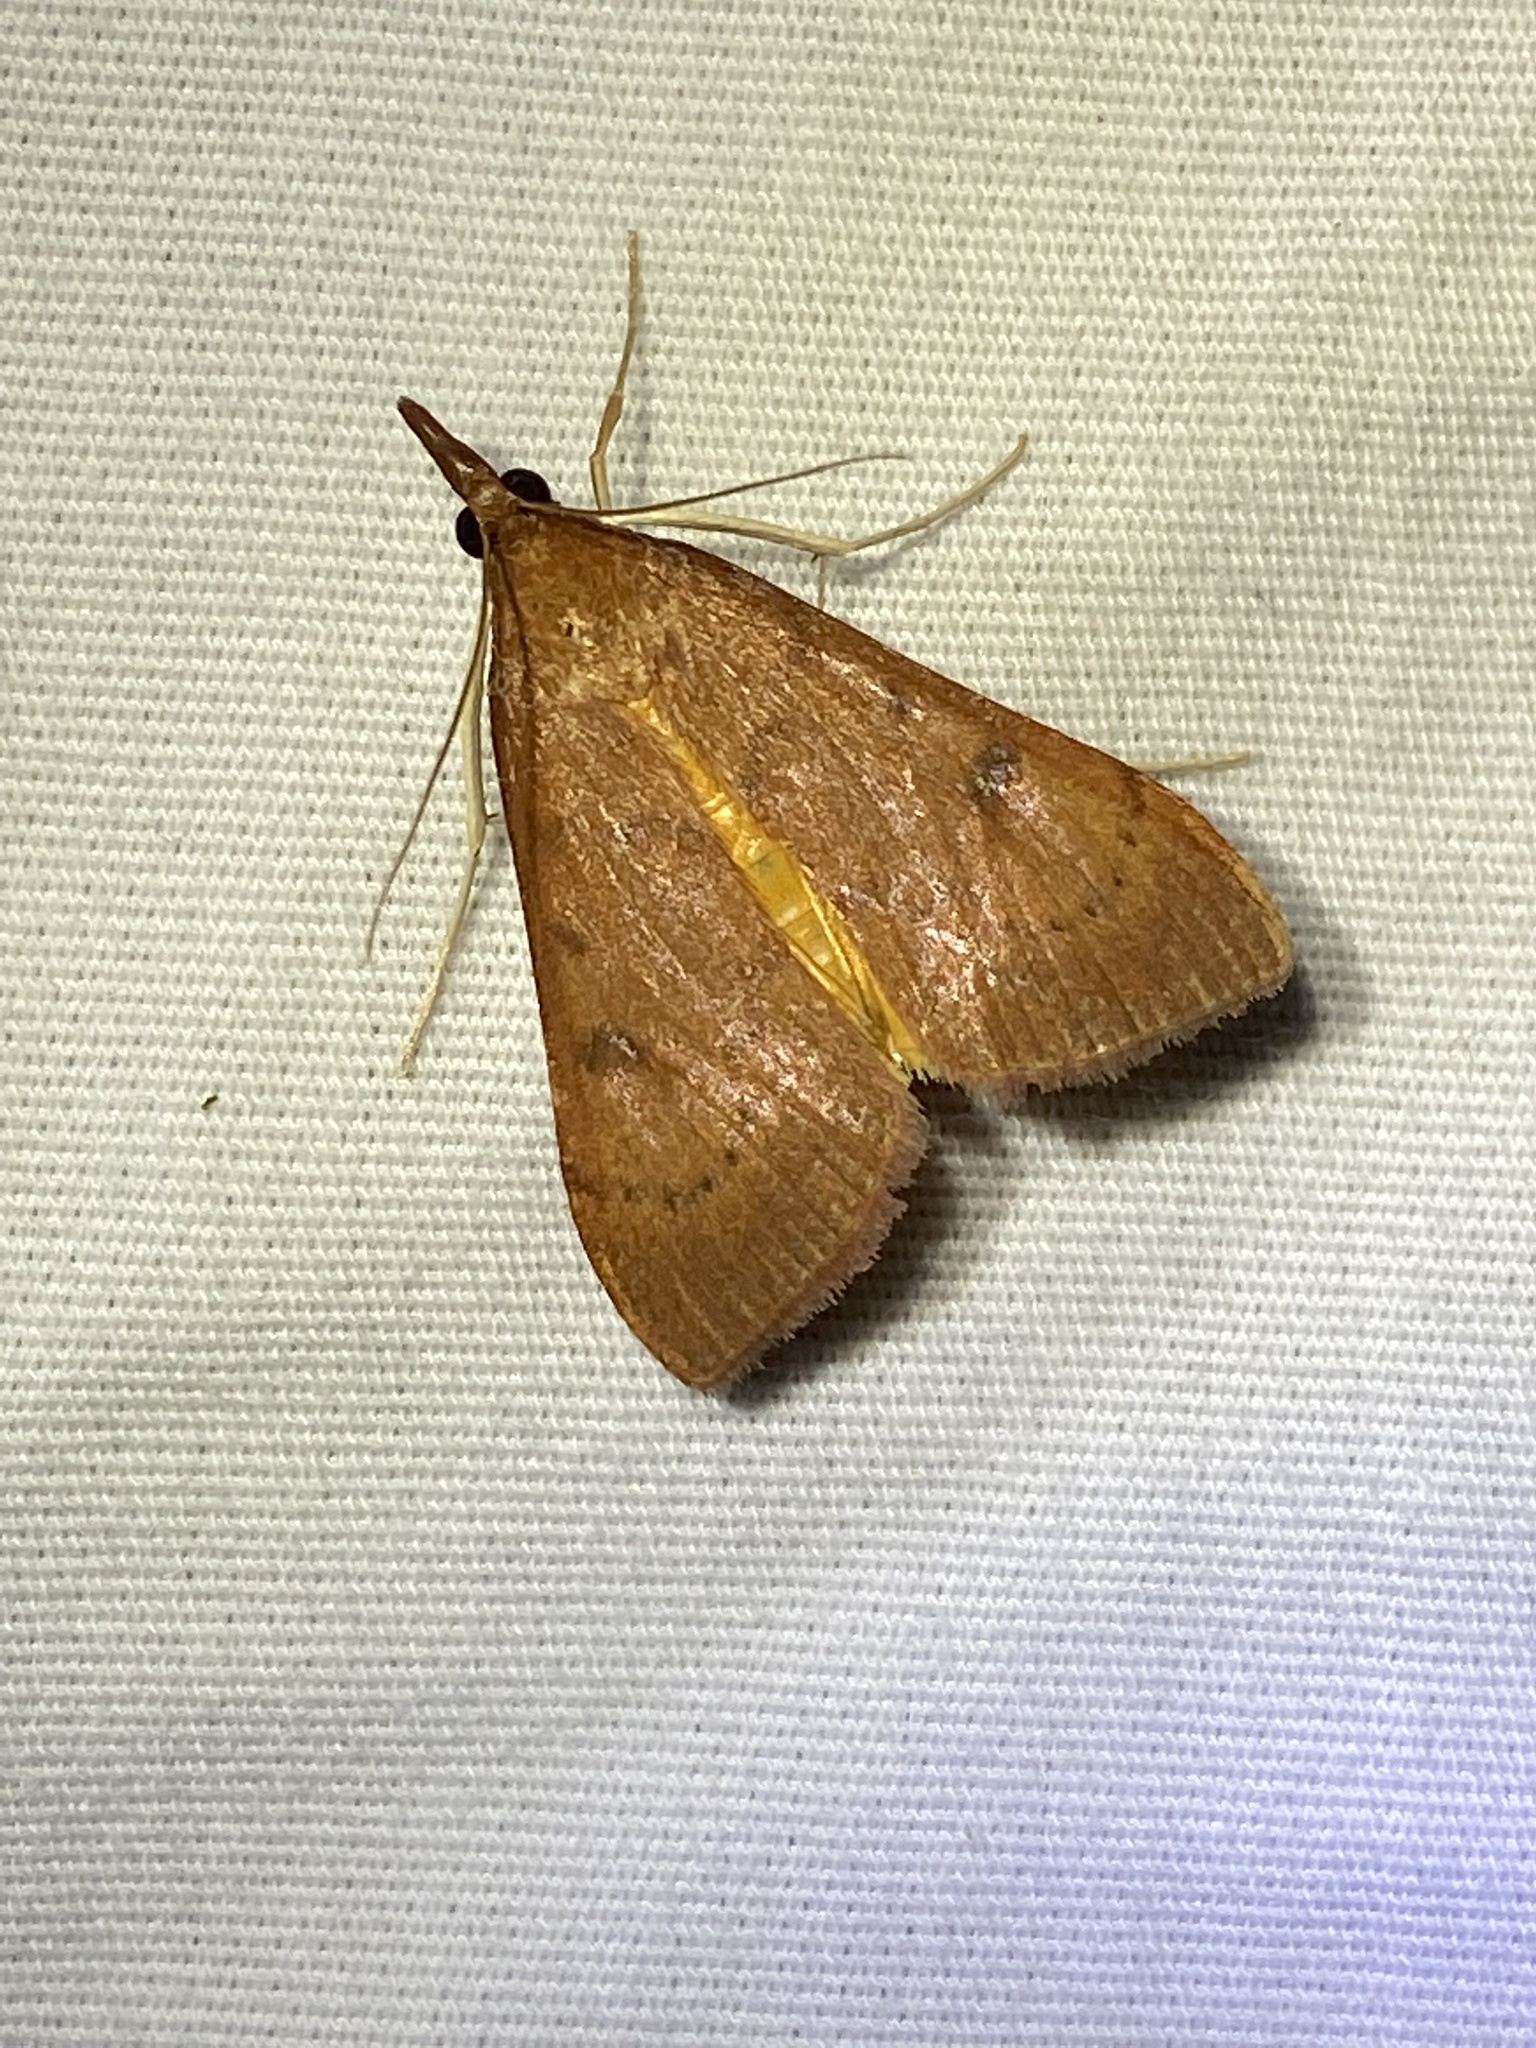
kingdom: Animalia
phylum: Arthropoda
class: Insecta
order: Lepidoptera
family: Crambidae
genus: Uresiphita
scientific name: Uresiphita reversalis
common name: Genista broom moth
